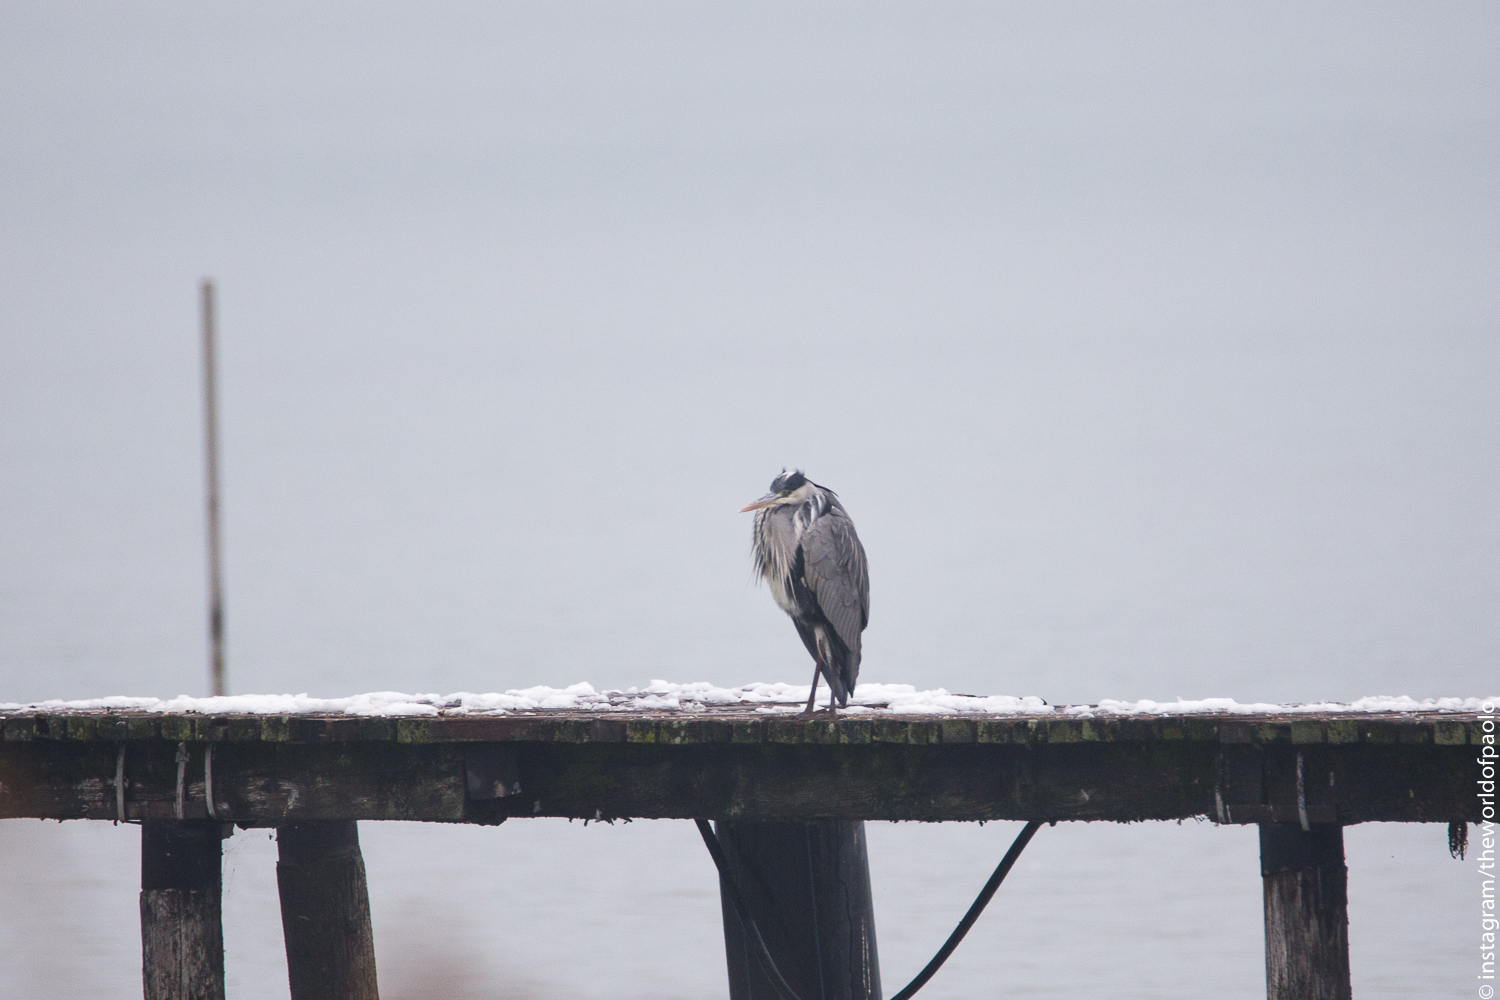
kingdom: Animalia
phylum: Chordata
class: Aves
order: Pelecaniformes
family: Ardeidae
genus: Ardea
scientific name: Ardea cinerea
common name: Grey heron
